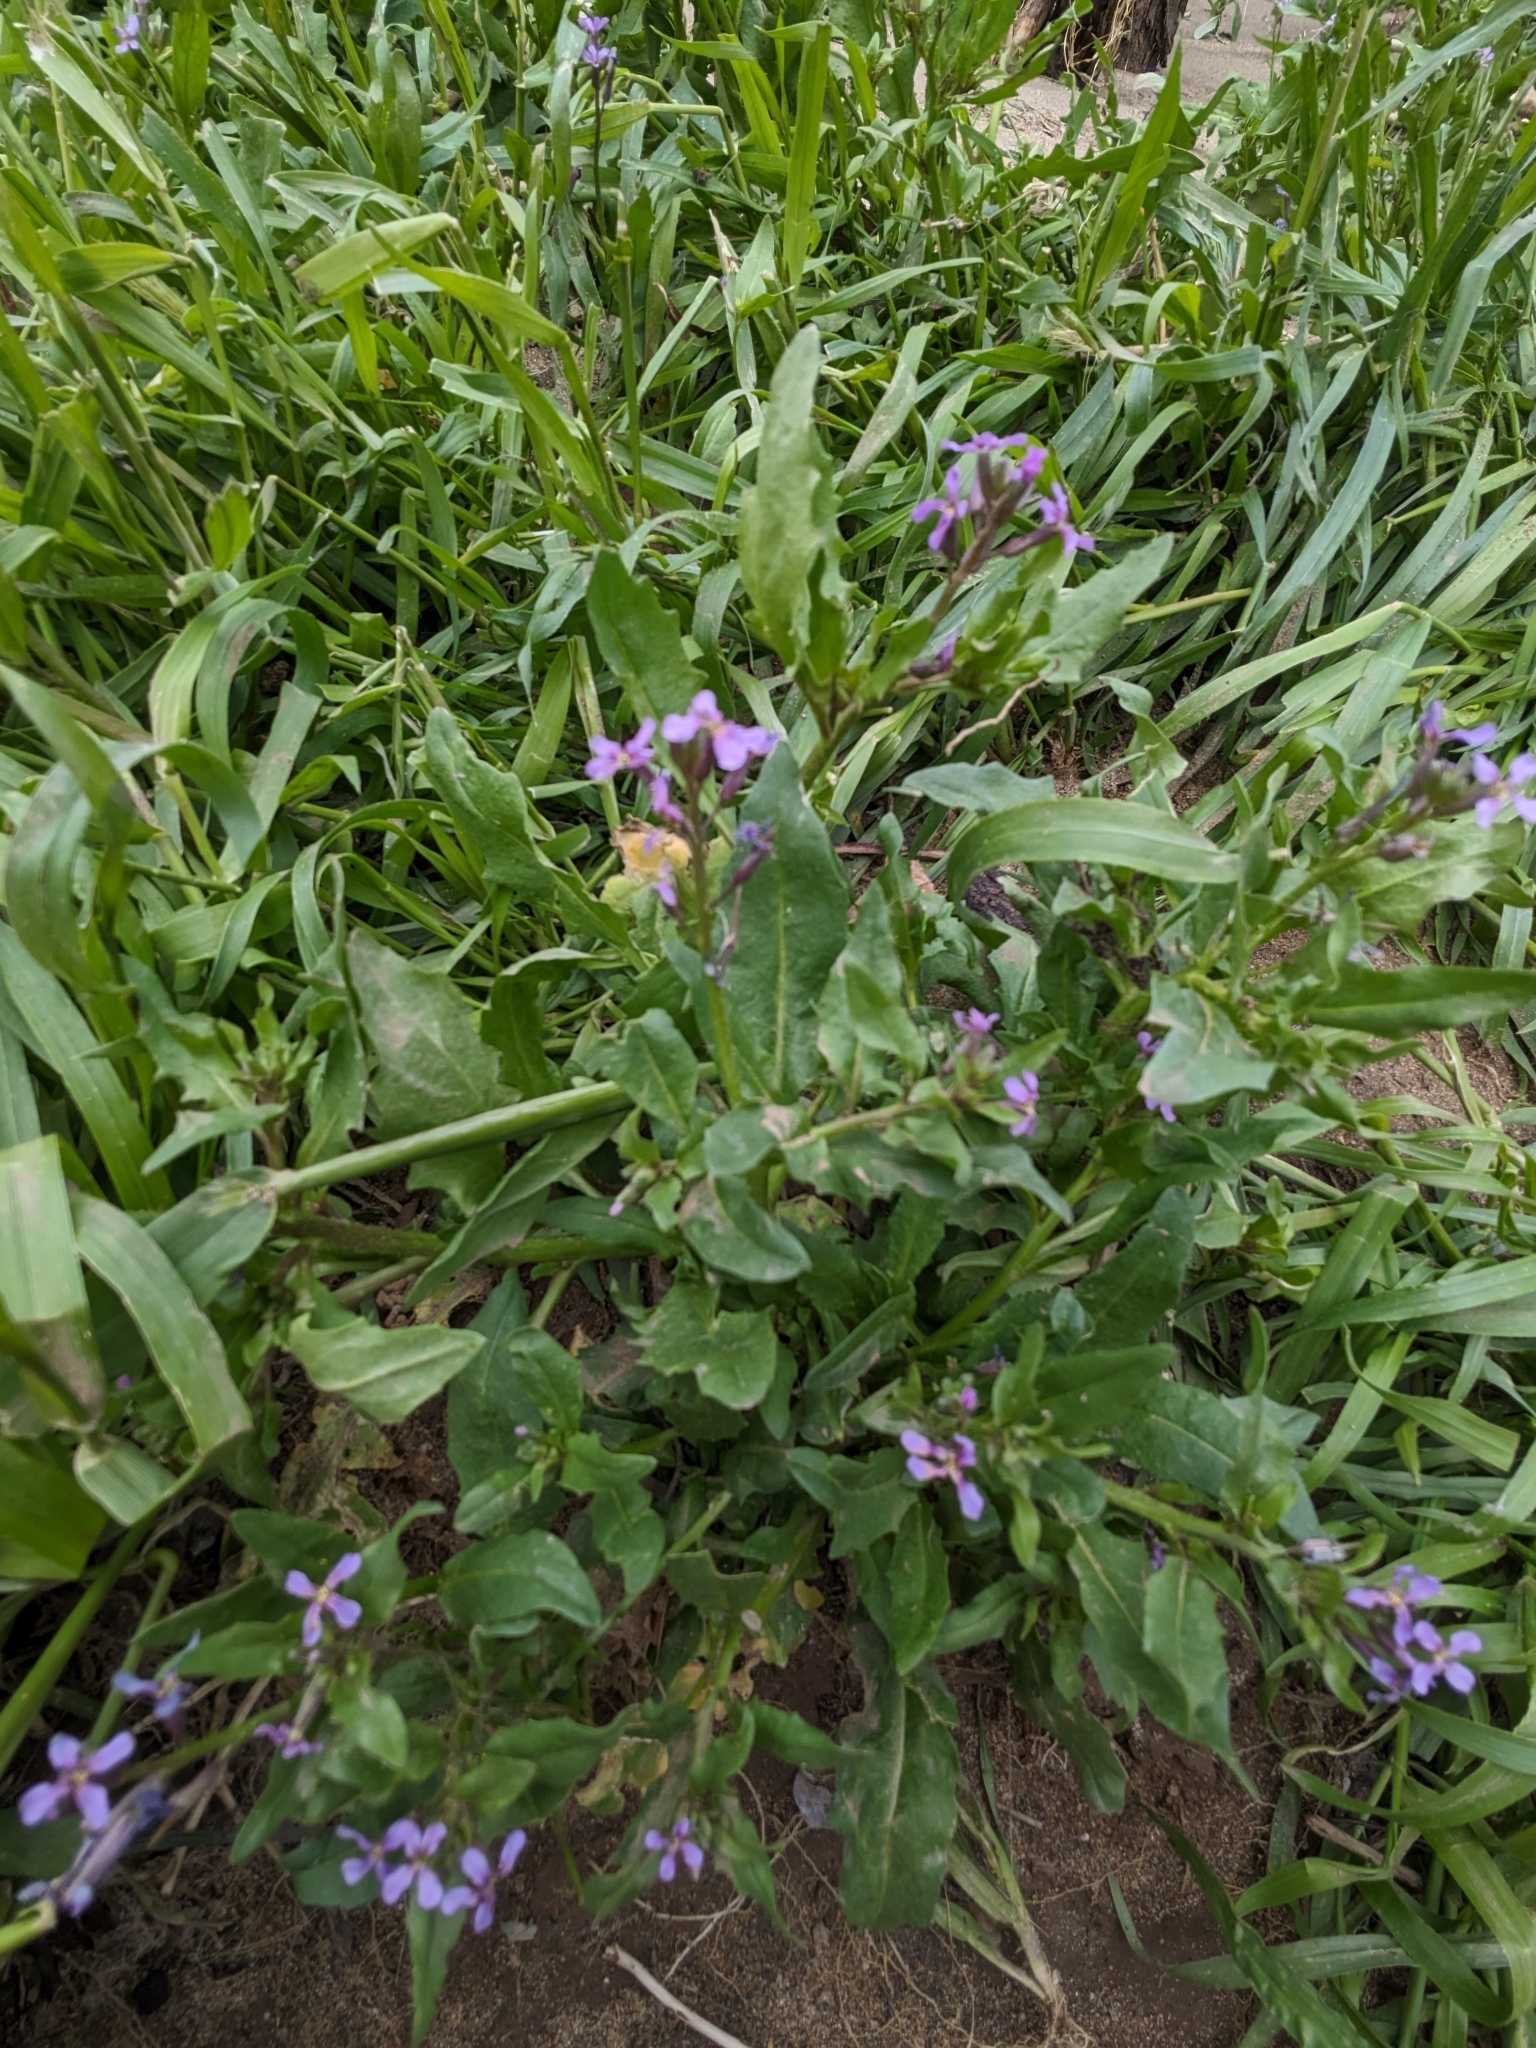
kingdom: Plantae
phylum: Tracheophyta
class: Magnoliopsida
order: Brassicales
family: Brassicaceae
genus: Chorispora
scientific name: Chorispora tenella
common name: Crossflower
